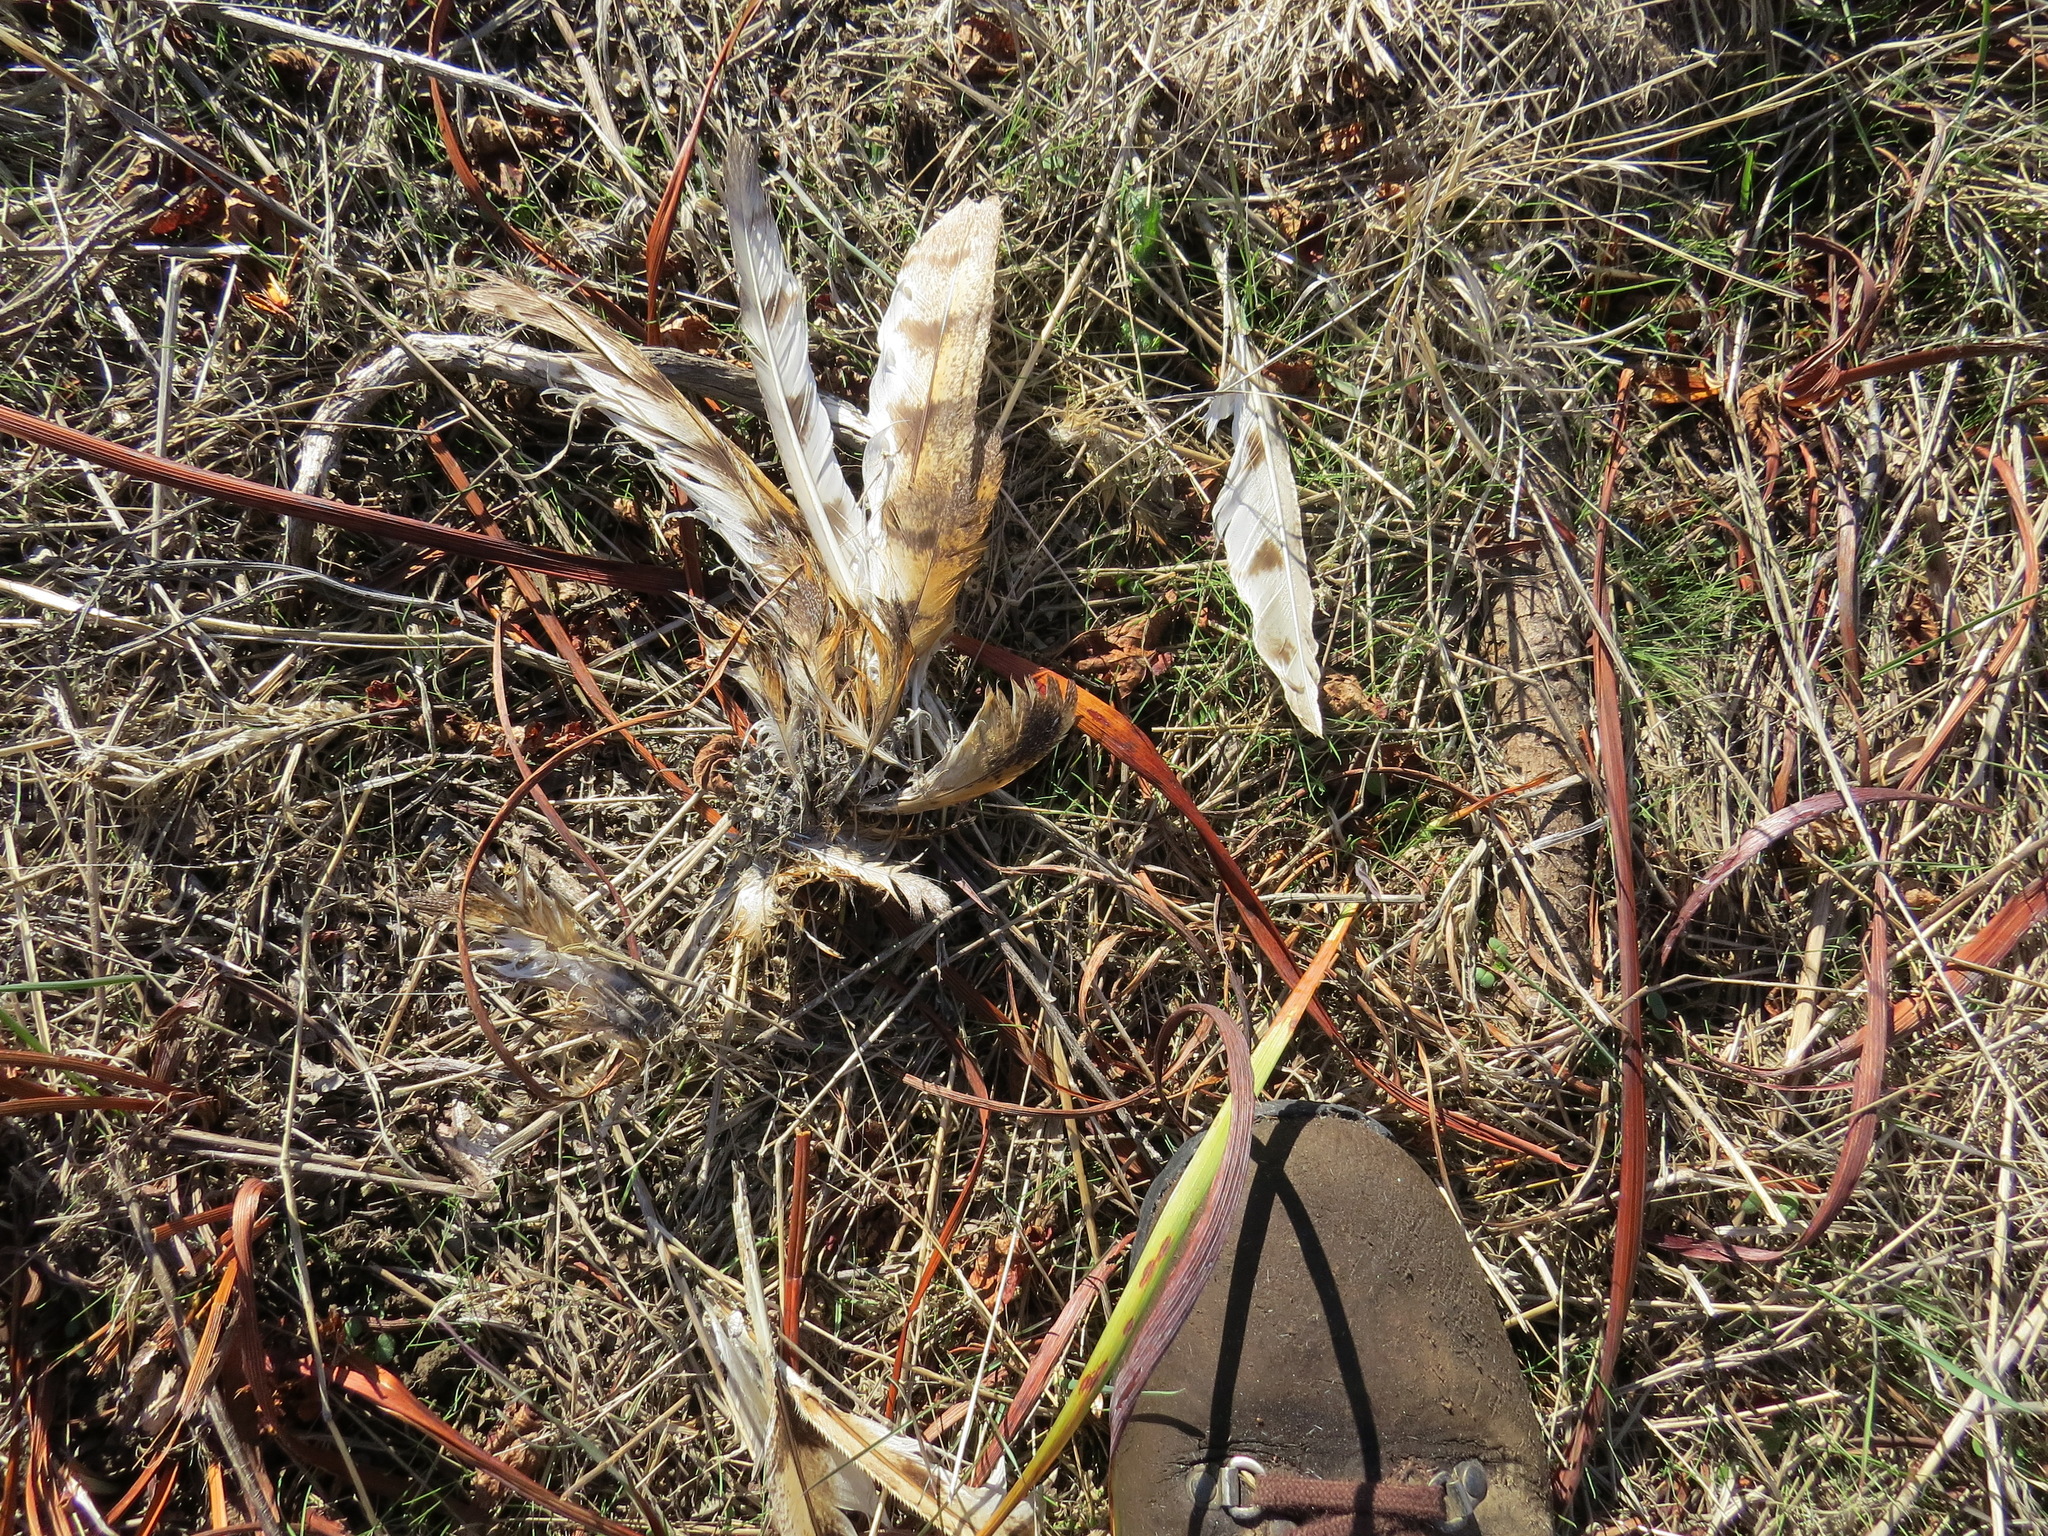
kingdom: Animalia
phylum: Chordata
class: Aves
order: Strigiformes
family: Tytonidae
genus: Tyto
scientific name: Tyto alba
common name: Barn owl
